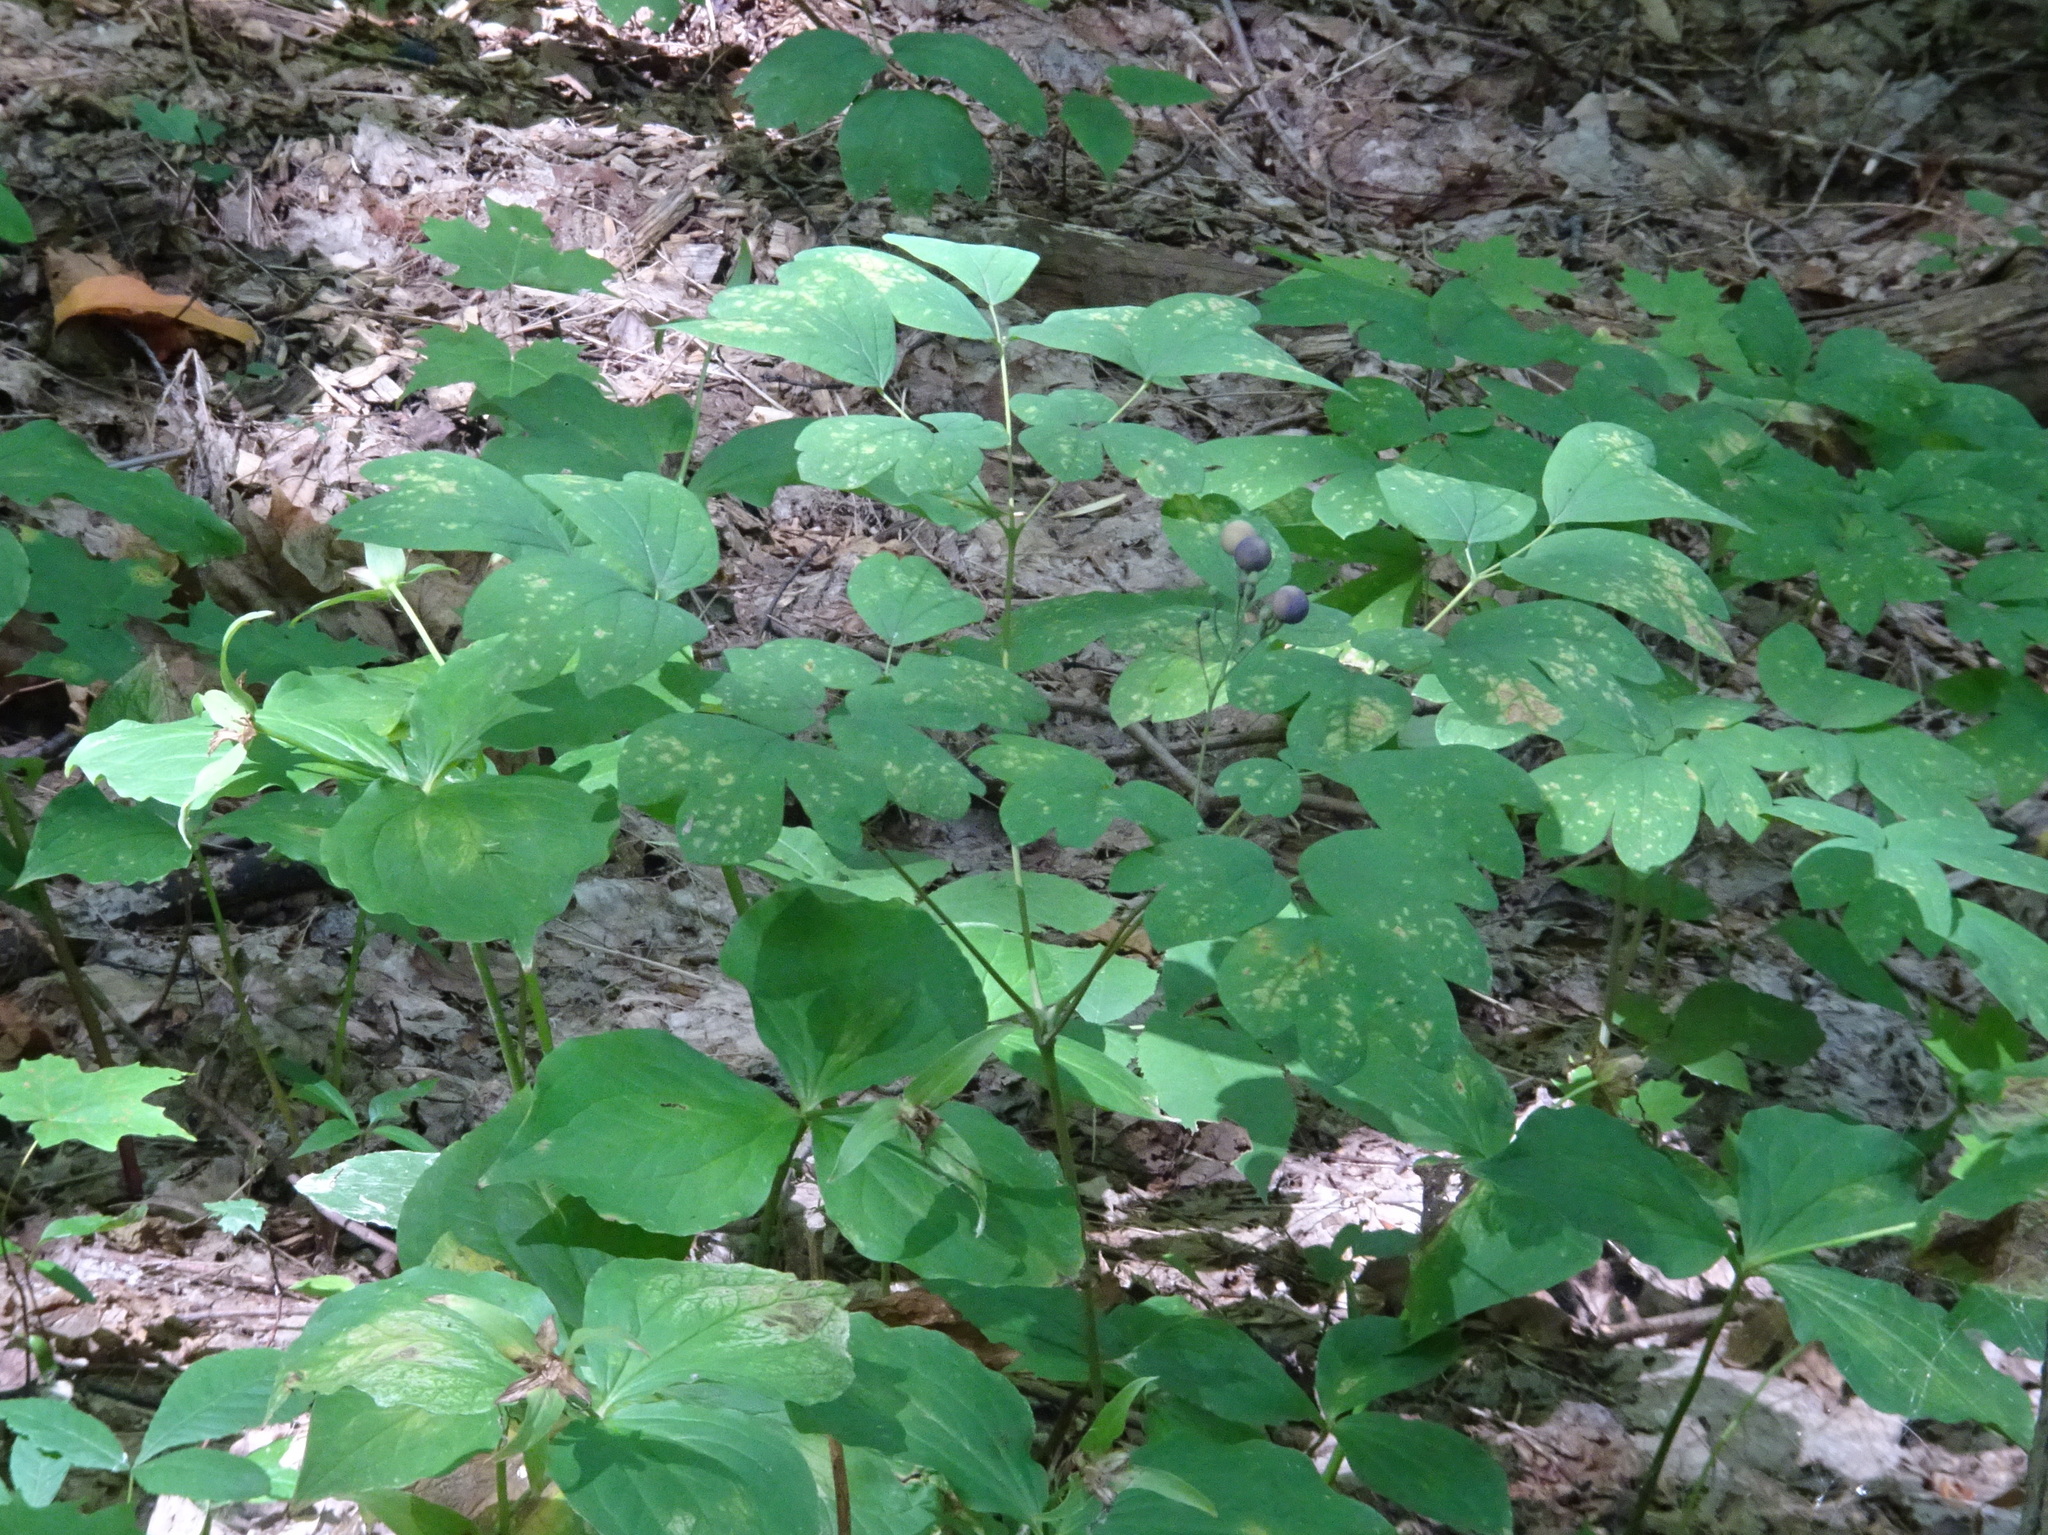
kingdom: Plantae
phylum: Tracheophyta
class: Magnoliopsida
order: Ranunculales
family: Berberidaceae
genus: Caulophyllum
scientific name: Caulophyllum thalictroides
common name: Blue cohosh
